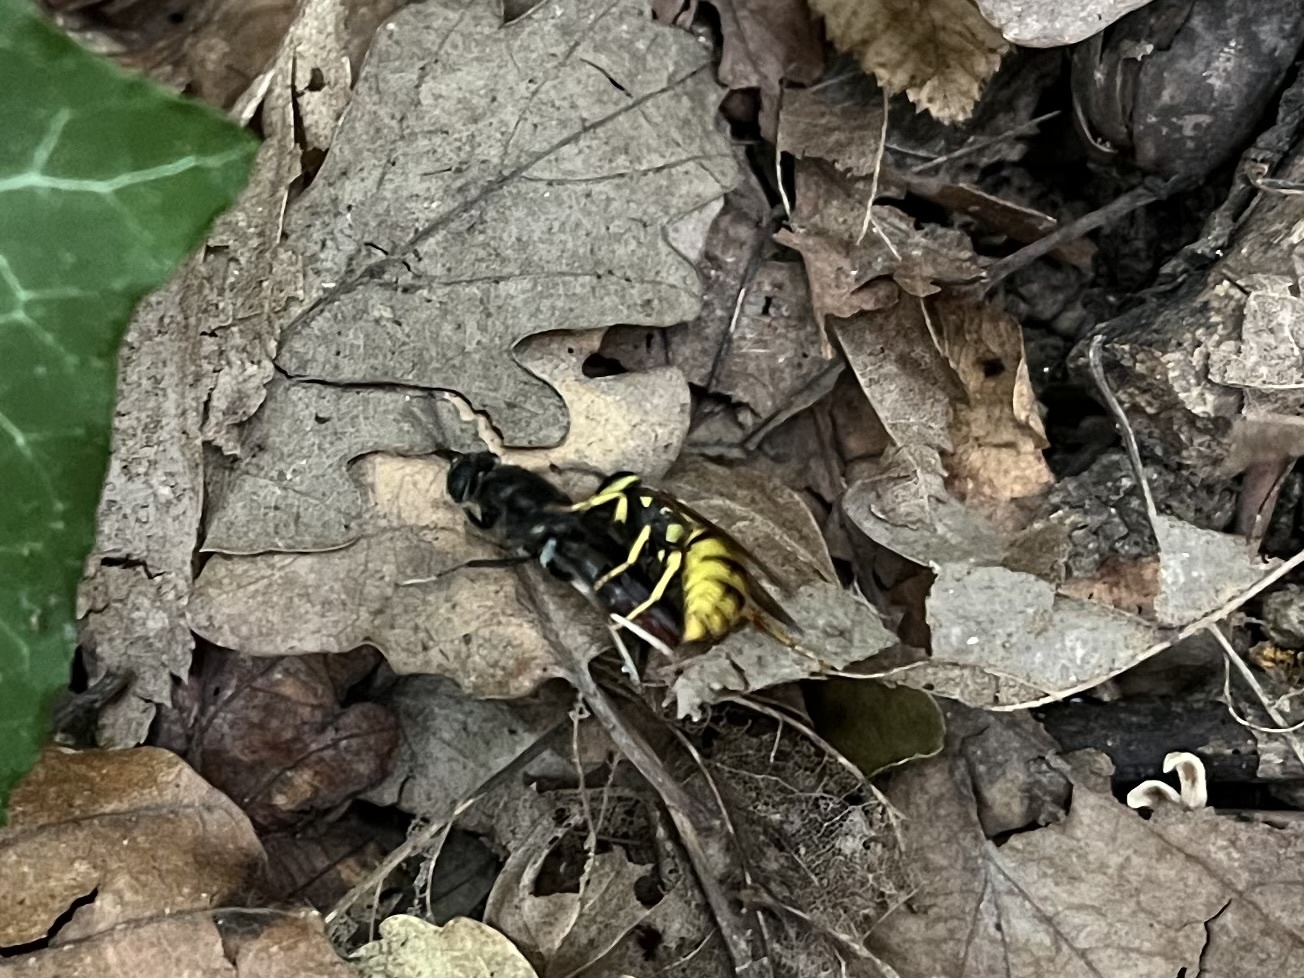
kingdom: Animalia
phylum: Arthropoda
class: Insecta
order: Hymenoptera
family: Vespidae
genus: Vespula
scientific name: Vespula germanica
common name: German wasp
